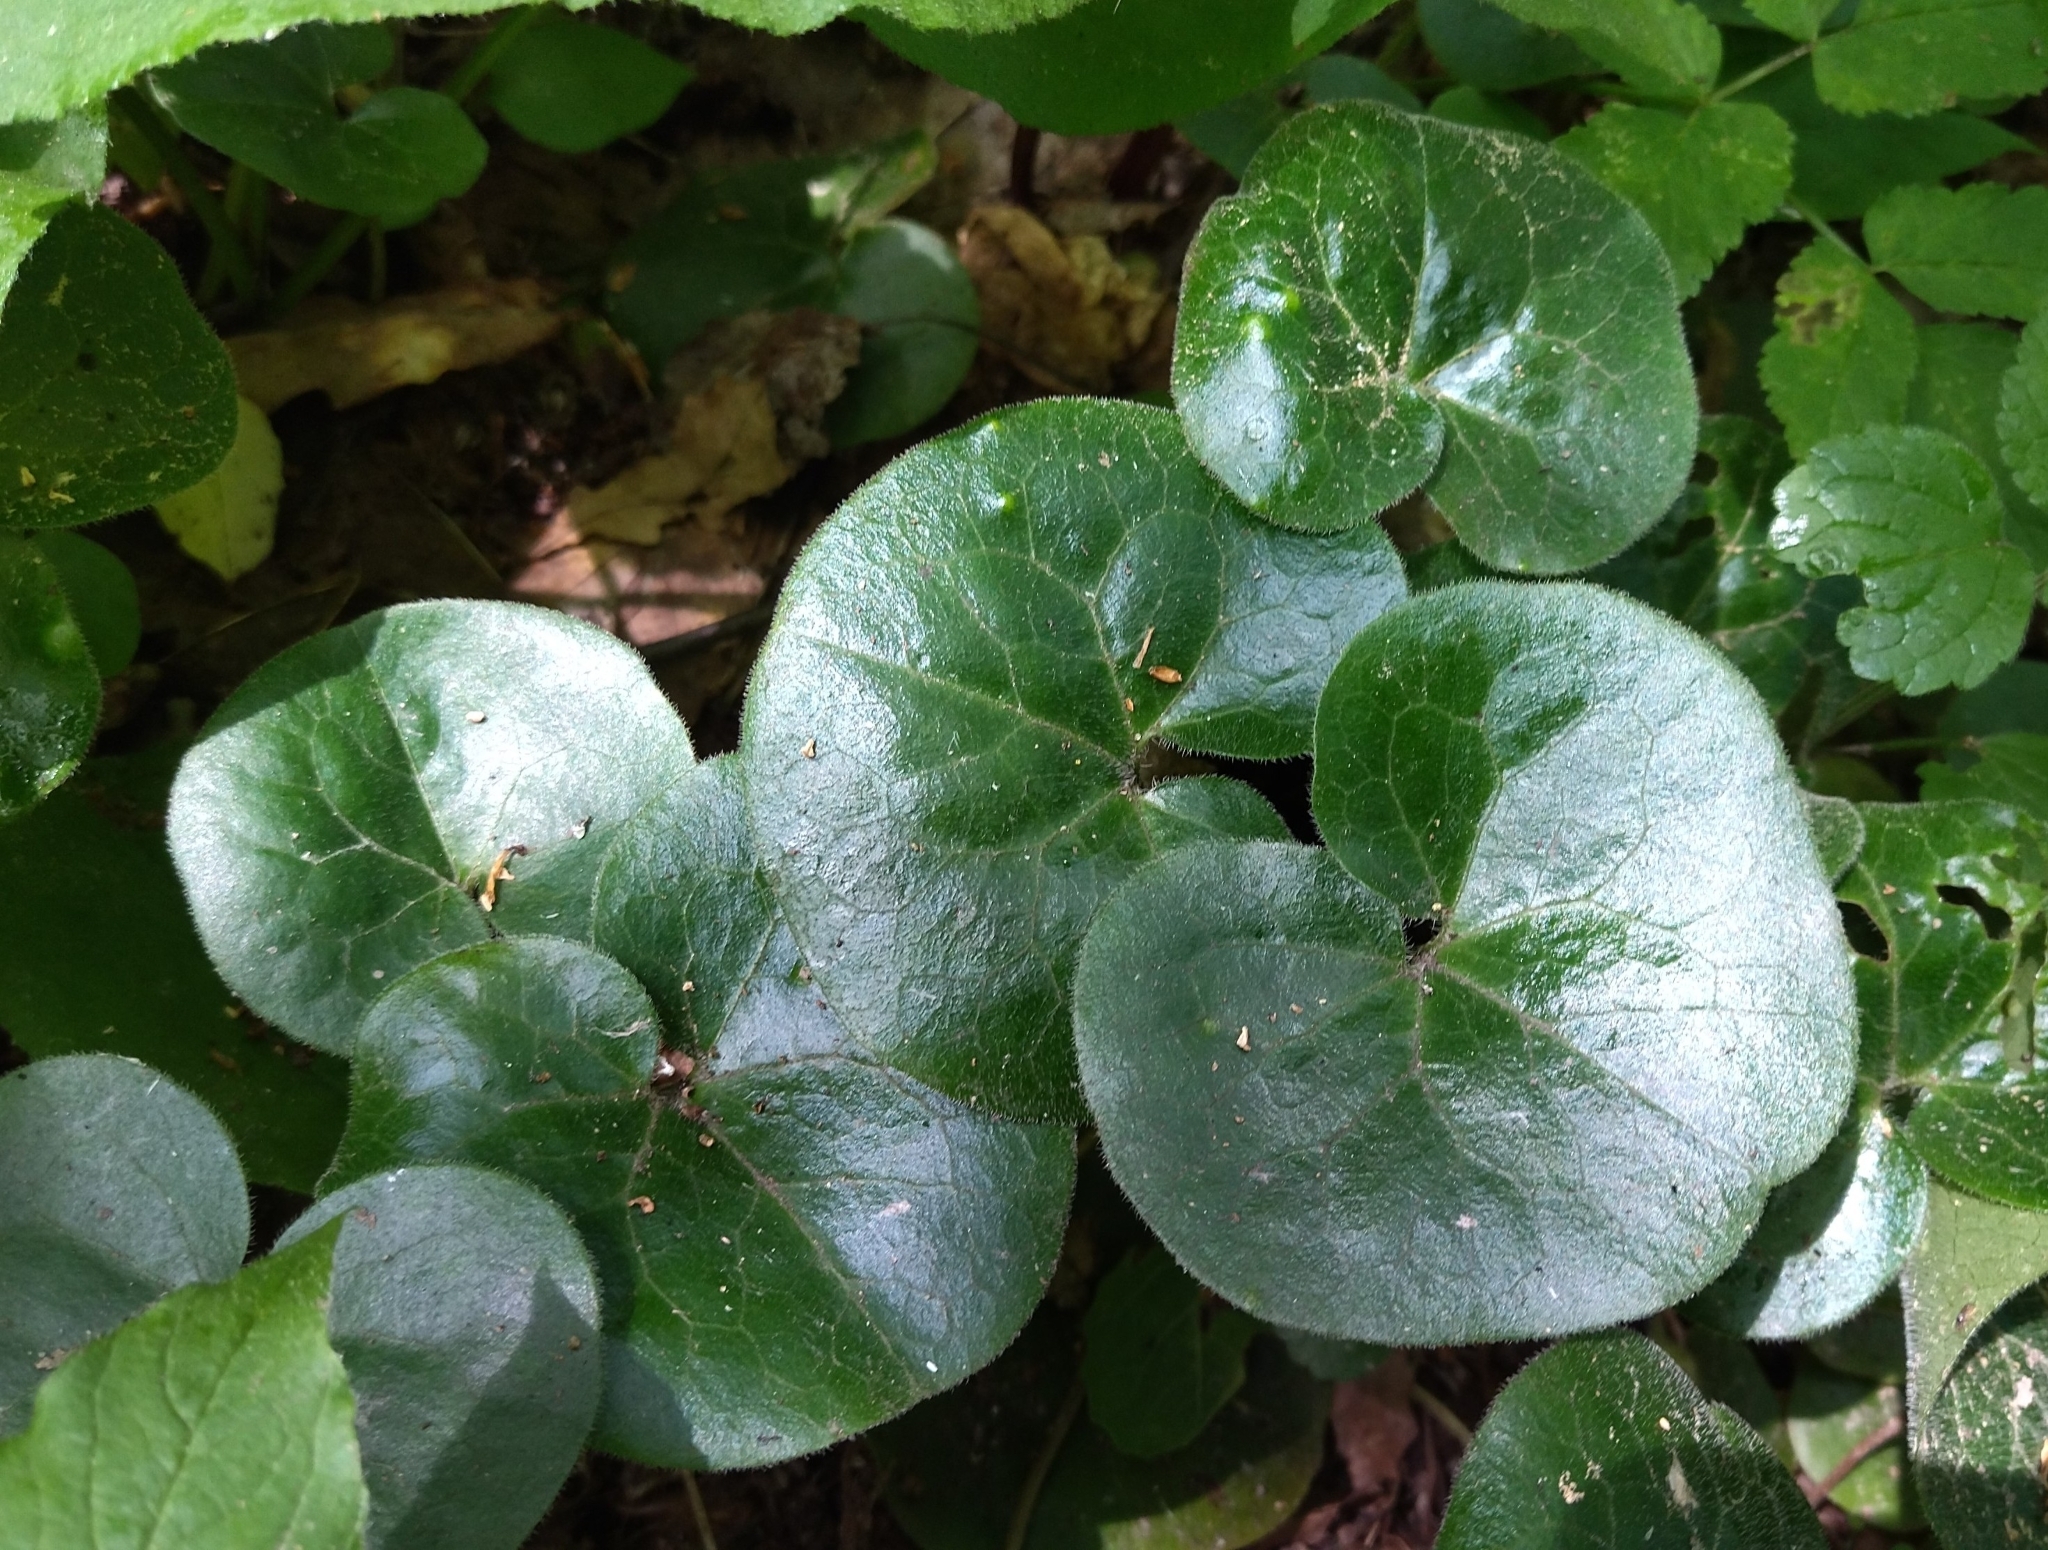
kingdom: Plantae
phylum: Tracheophyta
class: Magnoliopsida
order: Piperales
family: Aristolochiaceae
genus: Asarum
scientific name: Asarum europaeum
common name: Asarabacca
